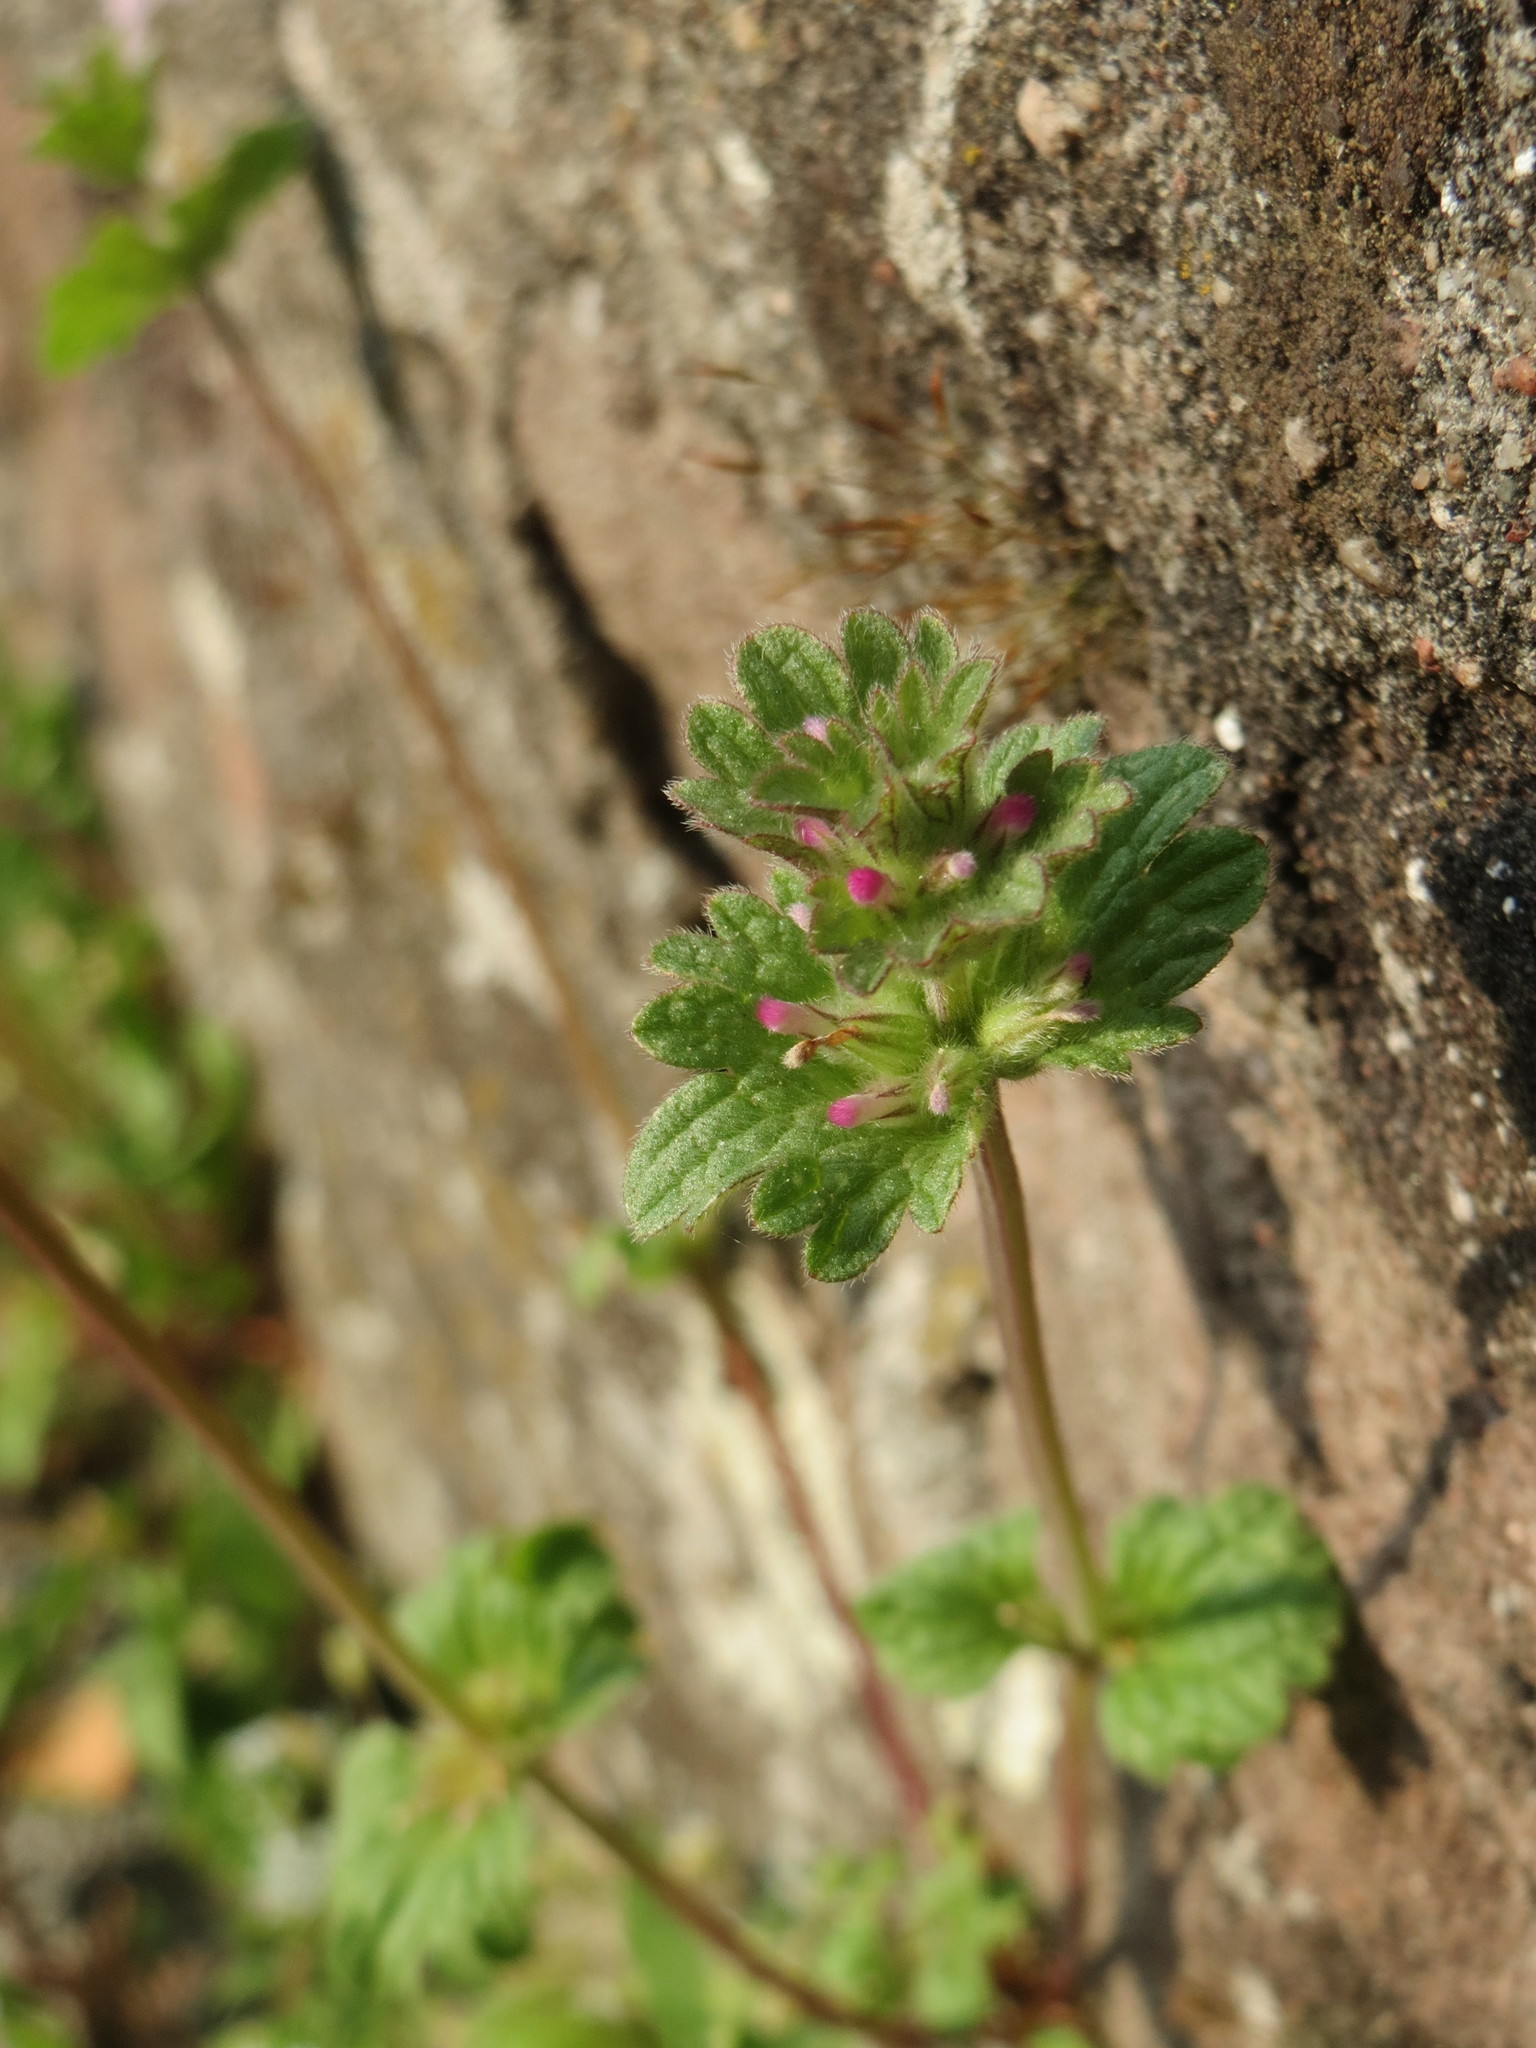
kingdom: Plantae
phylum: Tracheophyta
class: Magnoliopsida
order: Lamiales
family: Lamiaceae
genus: Lamium
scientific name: Lamium amplexicaule
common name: Henbit dead-nettle
